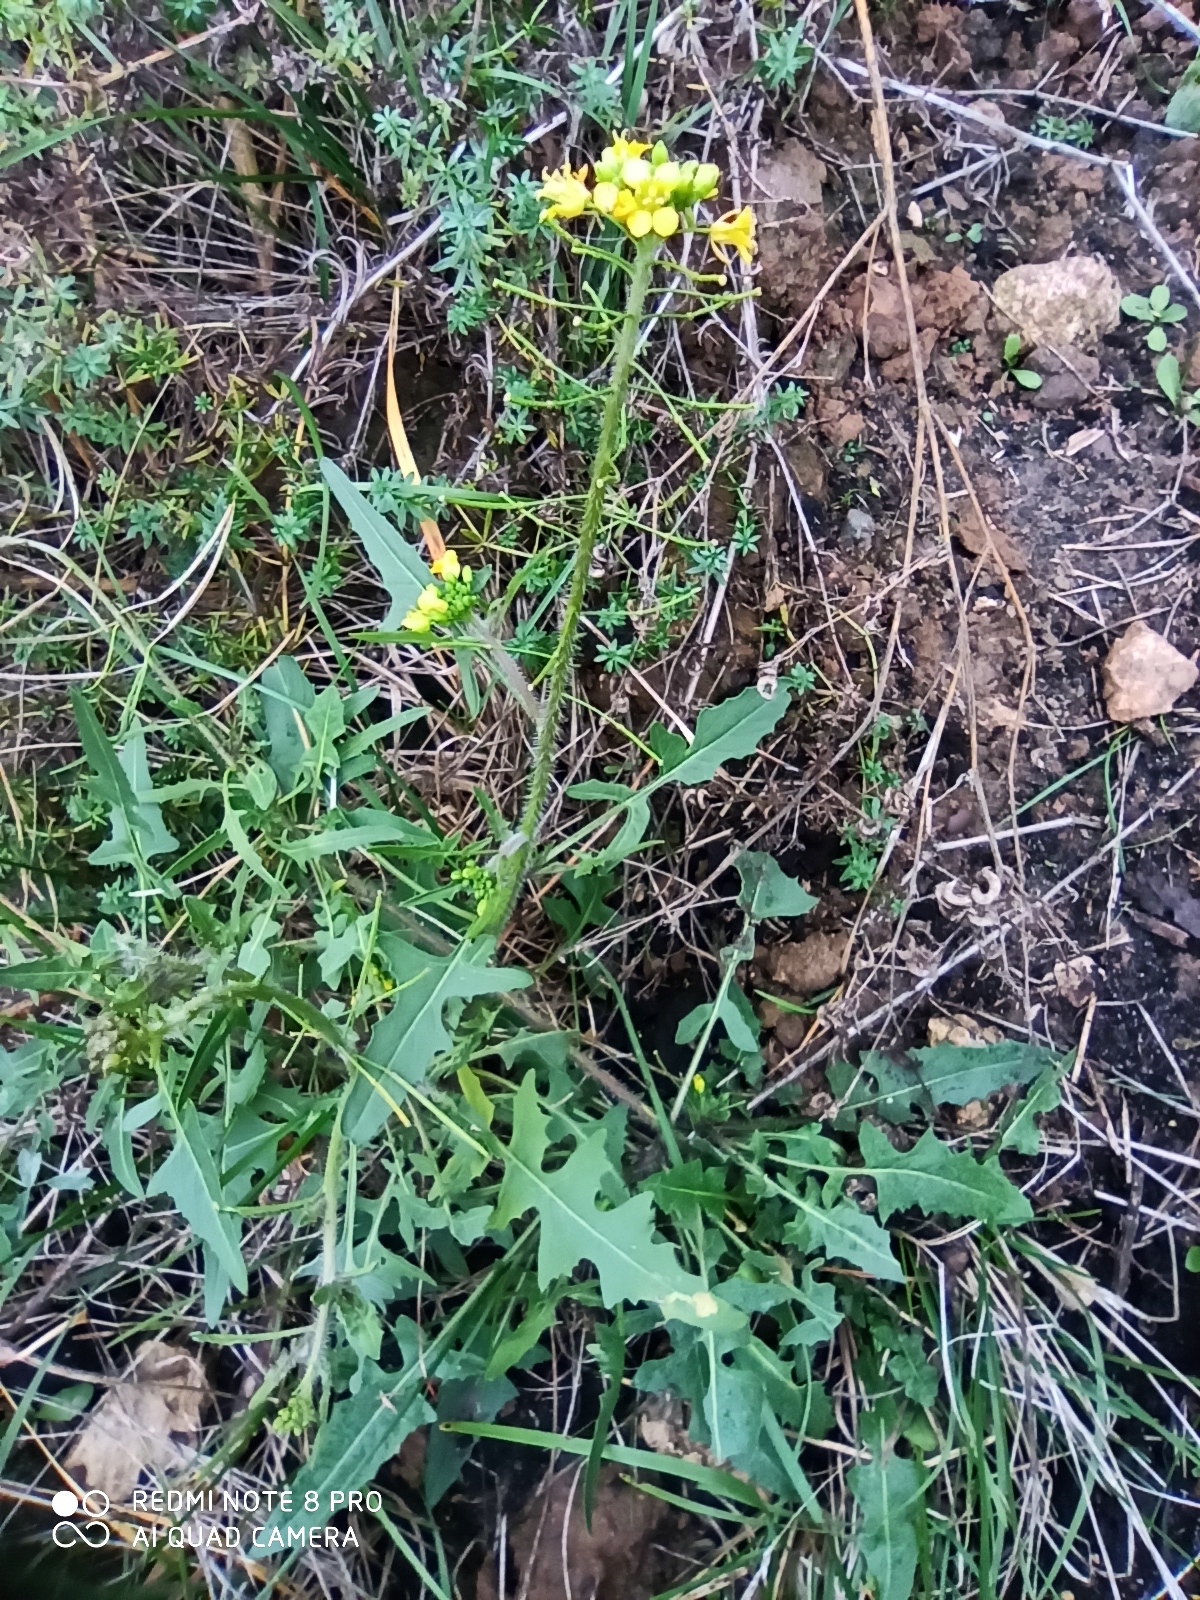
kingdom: Plantae
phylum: Tracheophyta
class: Magnoliopsida
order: Brassicales
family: Brassicaceae
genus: Sisymbrium
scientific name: Sisymbrium loeselii
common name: False london-rocket
